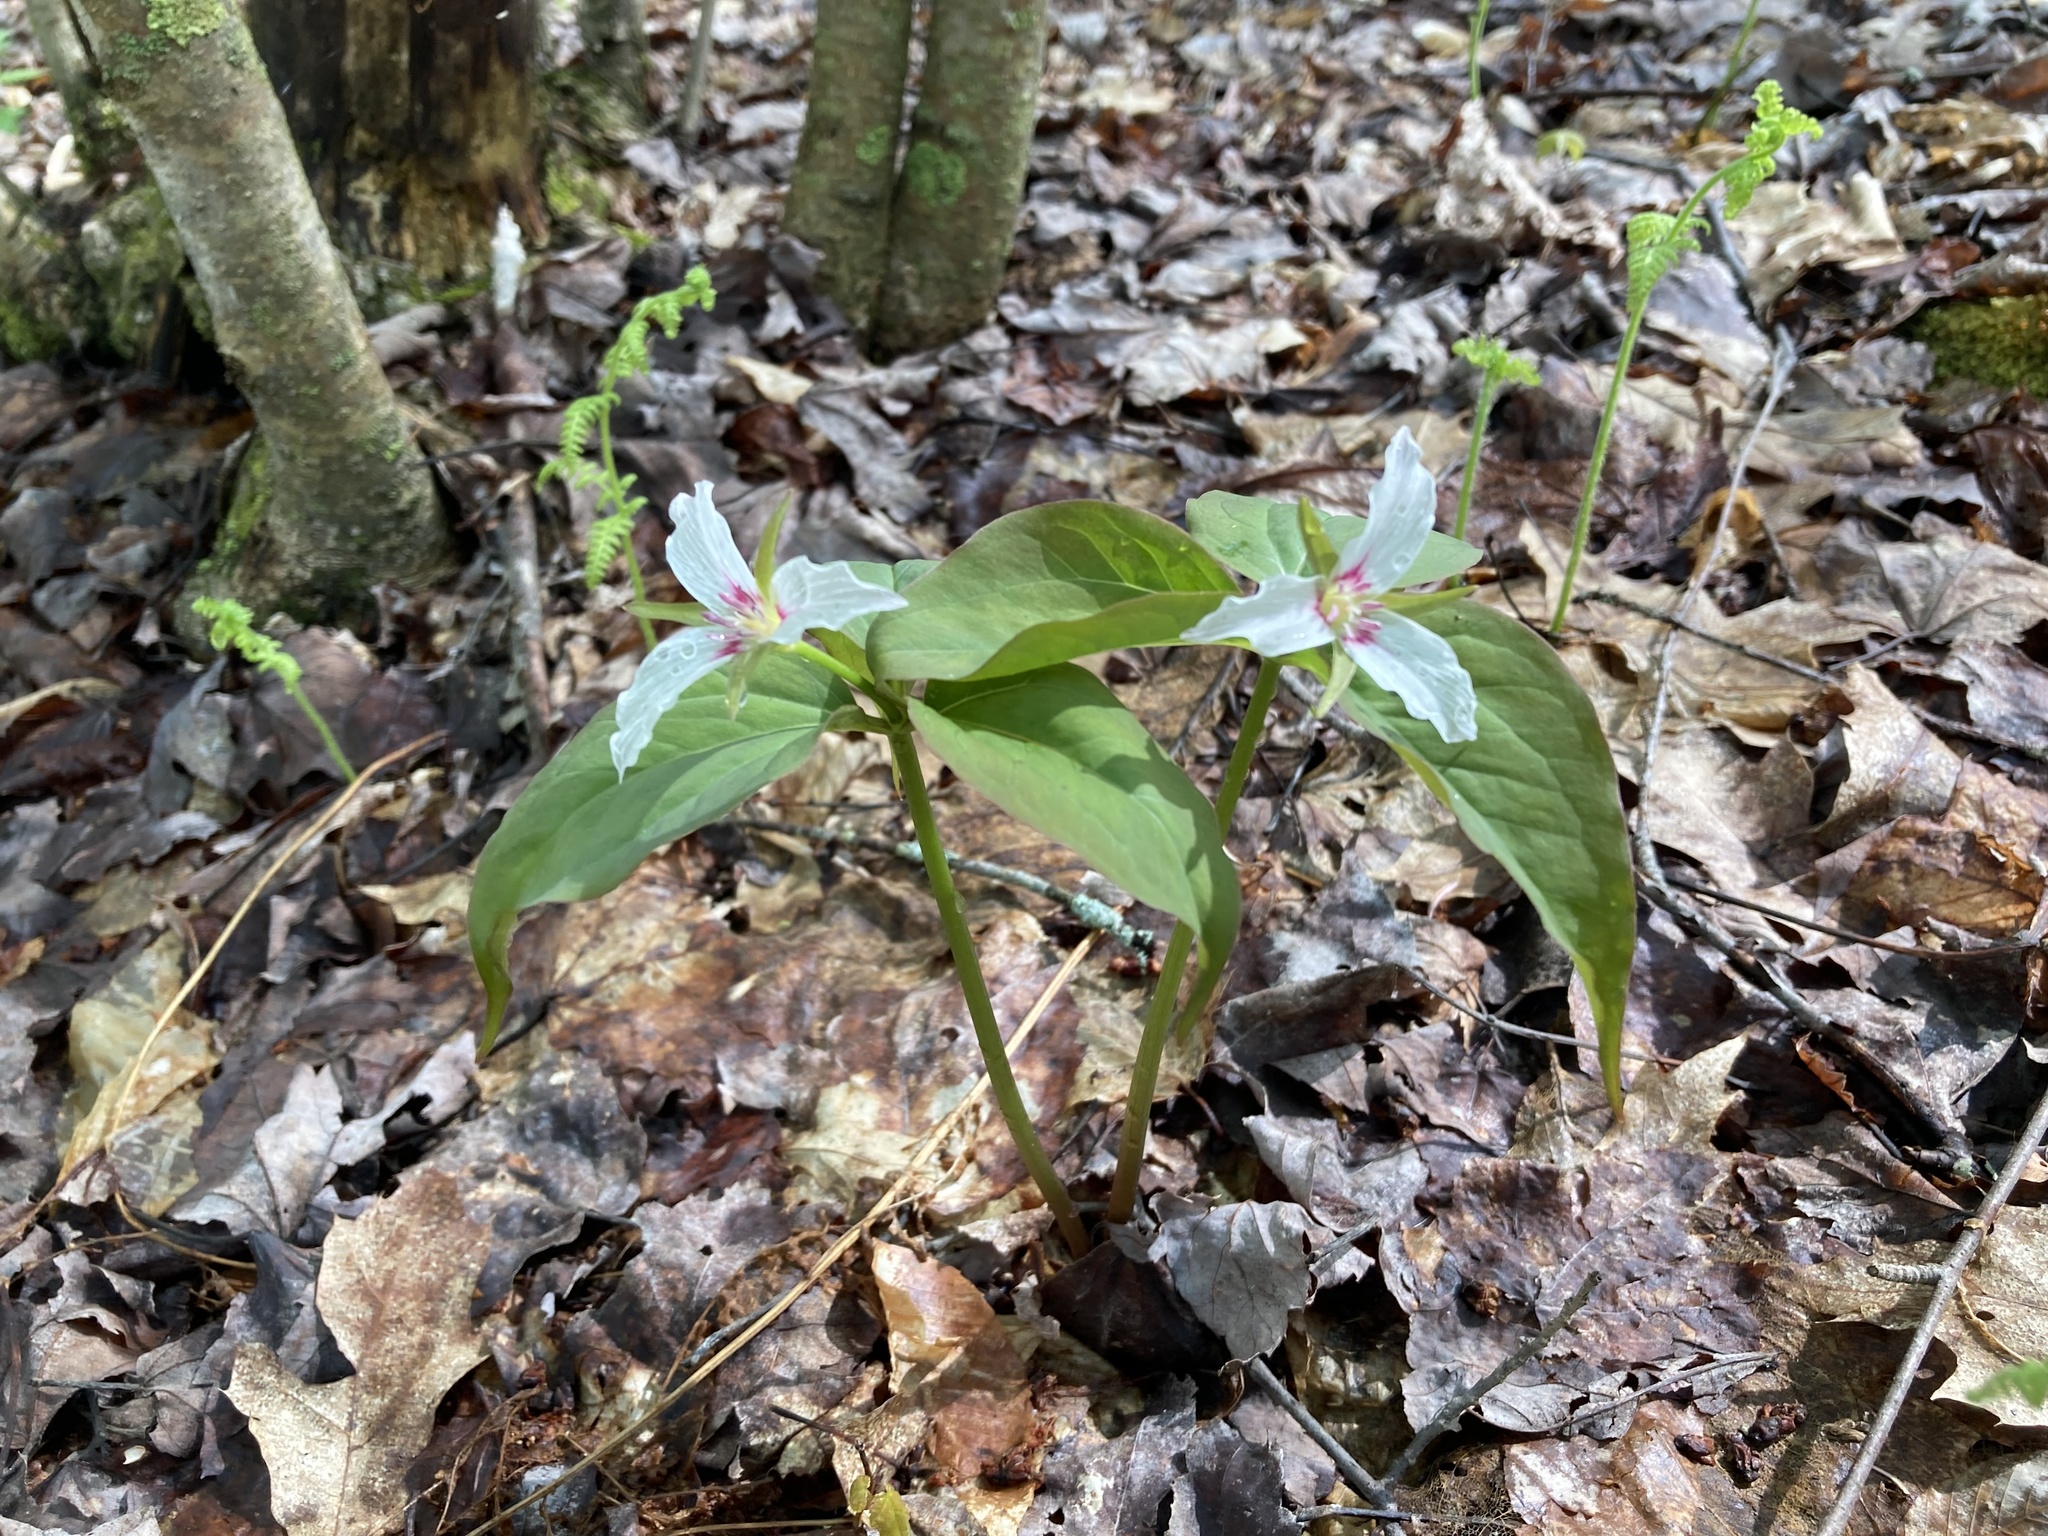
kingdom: Plantae
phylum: Tracheophyta
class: Liliopsida
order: Liliales
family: Melanthiaceae
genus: Trillium
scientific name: Trillium undulatum
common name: Paint trillium
